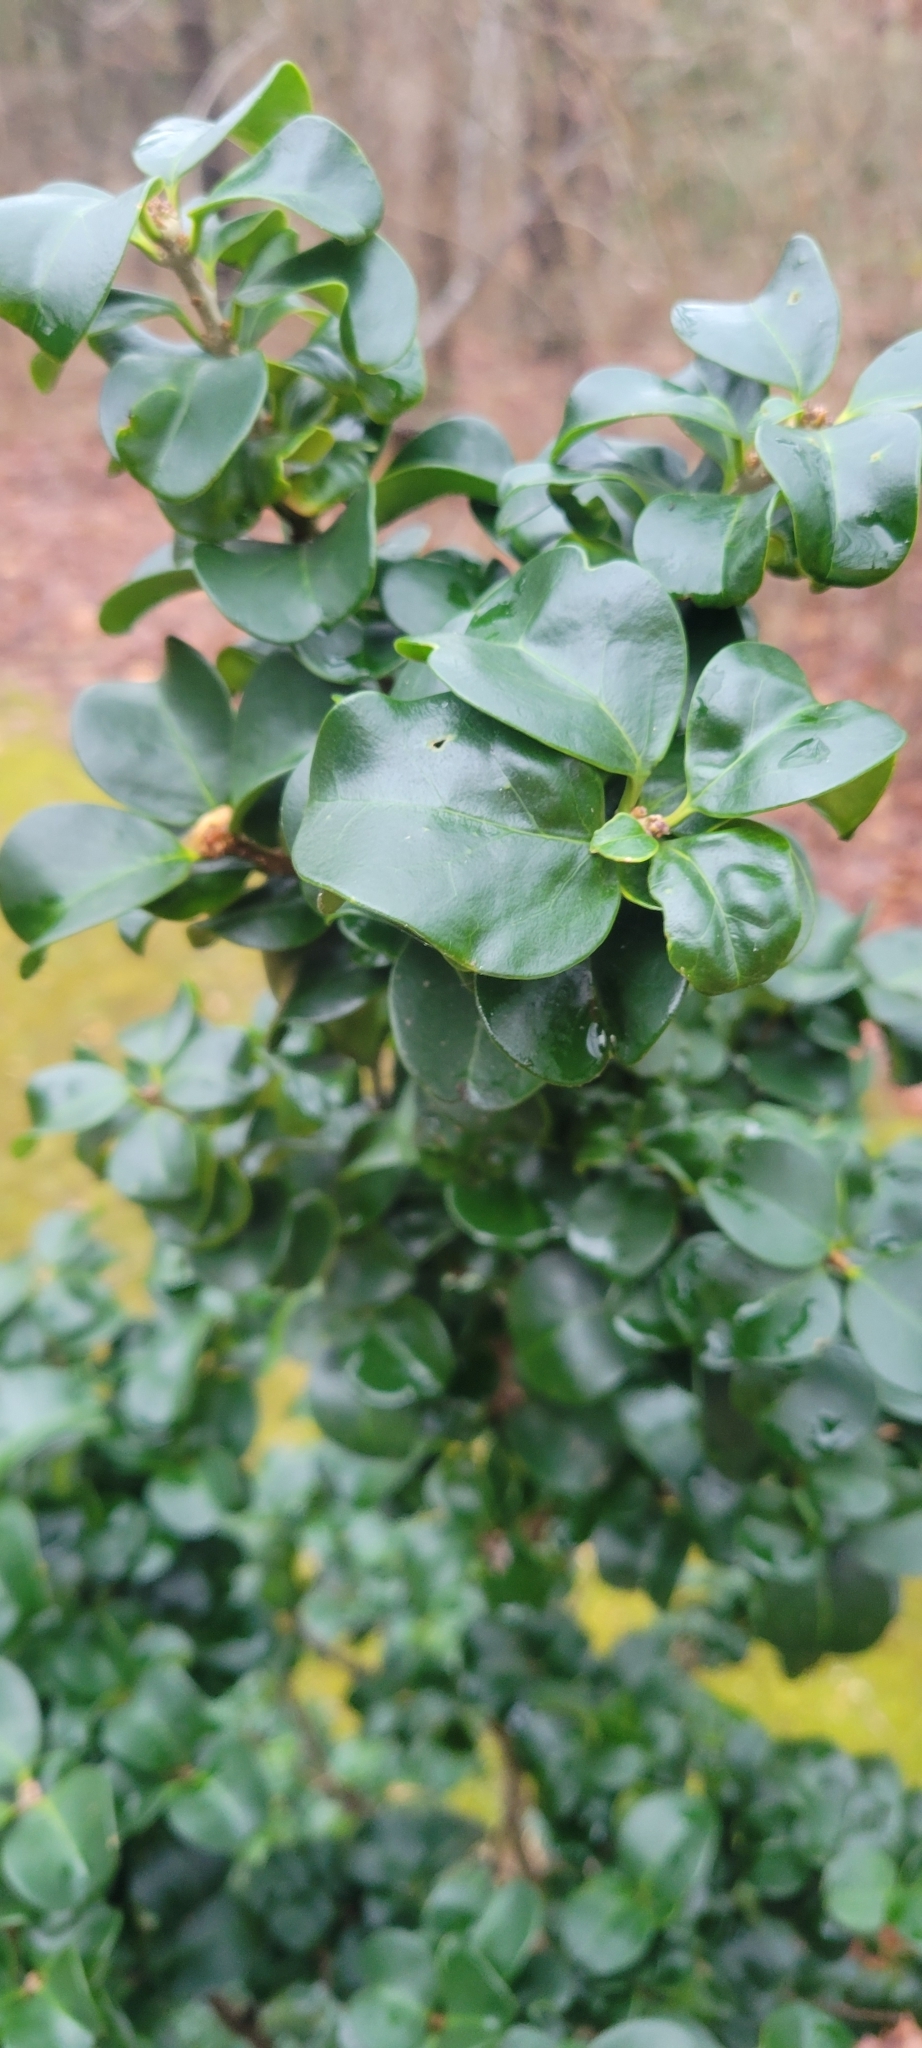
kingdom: Plantae
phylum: Tracheophyta
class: Magnoliopsida
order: Buxales
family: Buxaceae
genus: Buxus
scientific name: Buxus sempervirens
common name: Box
